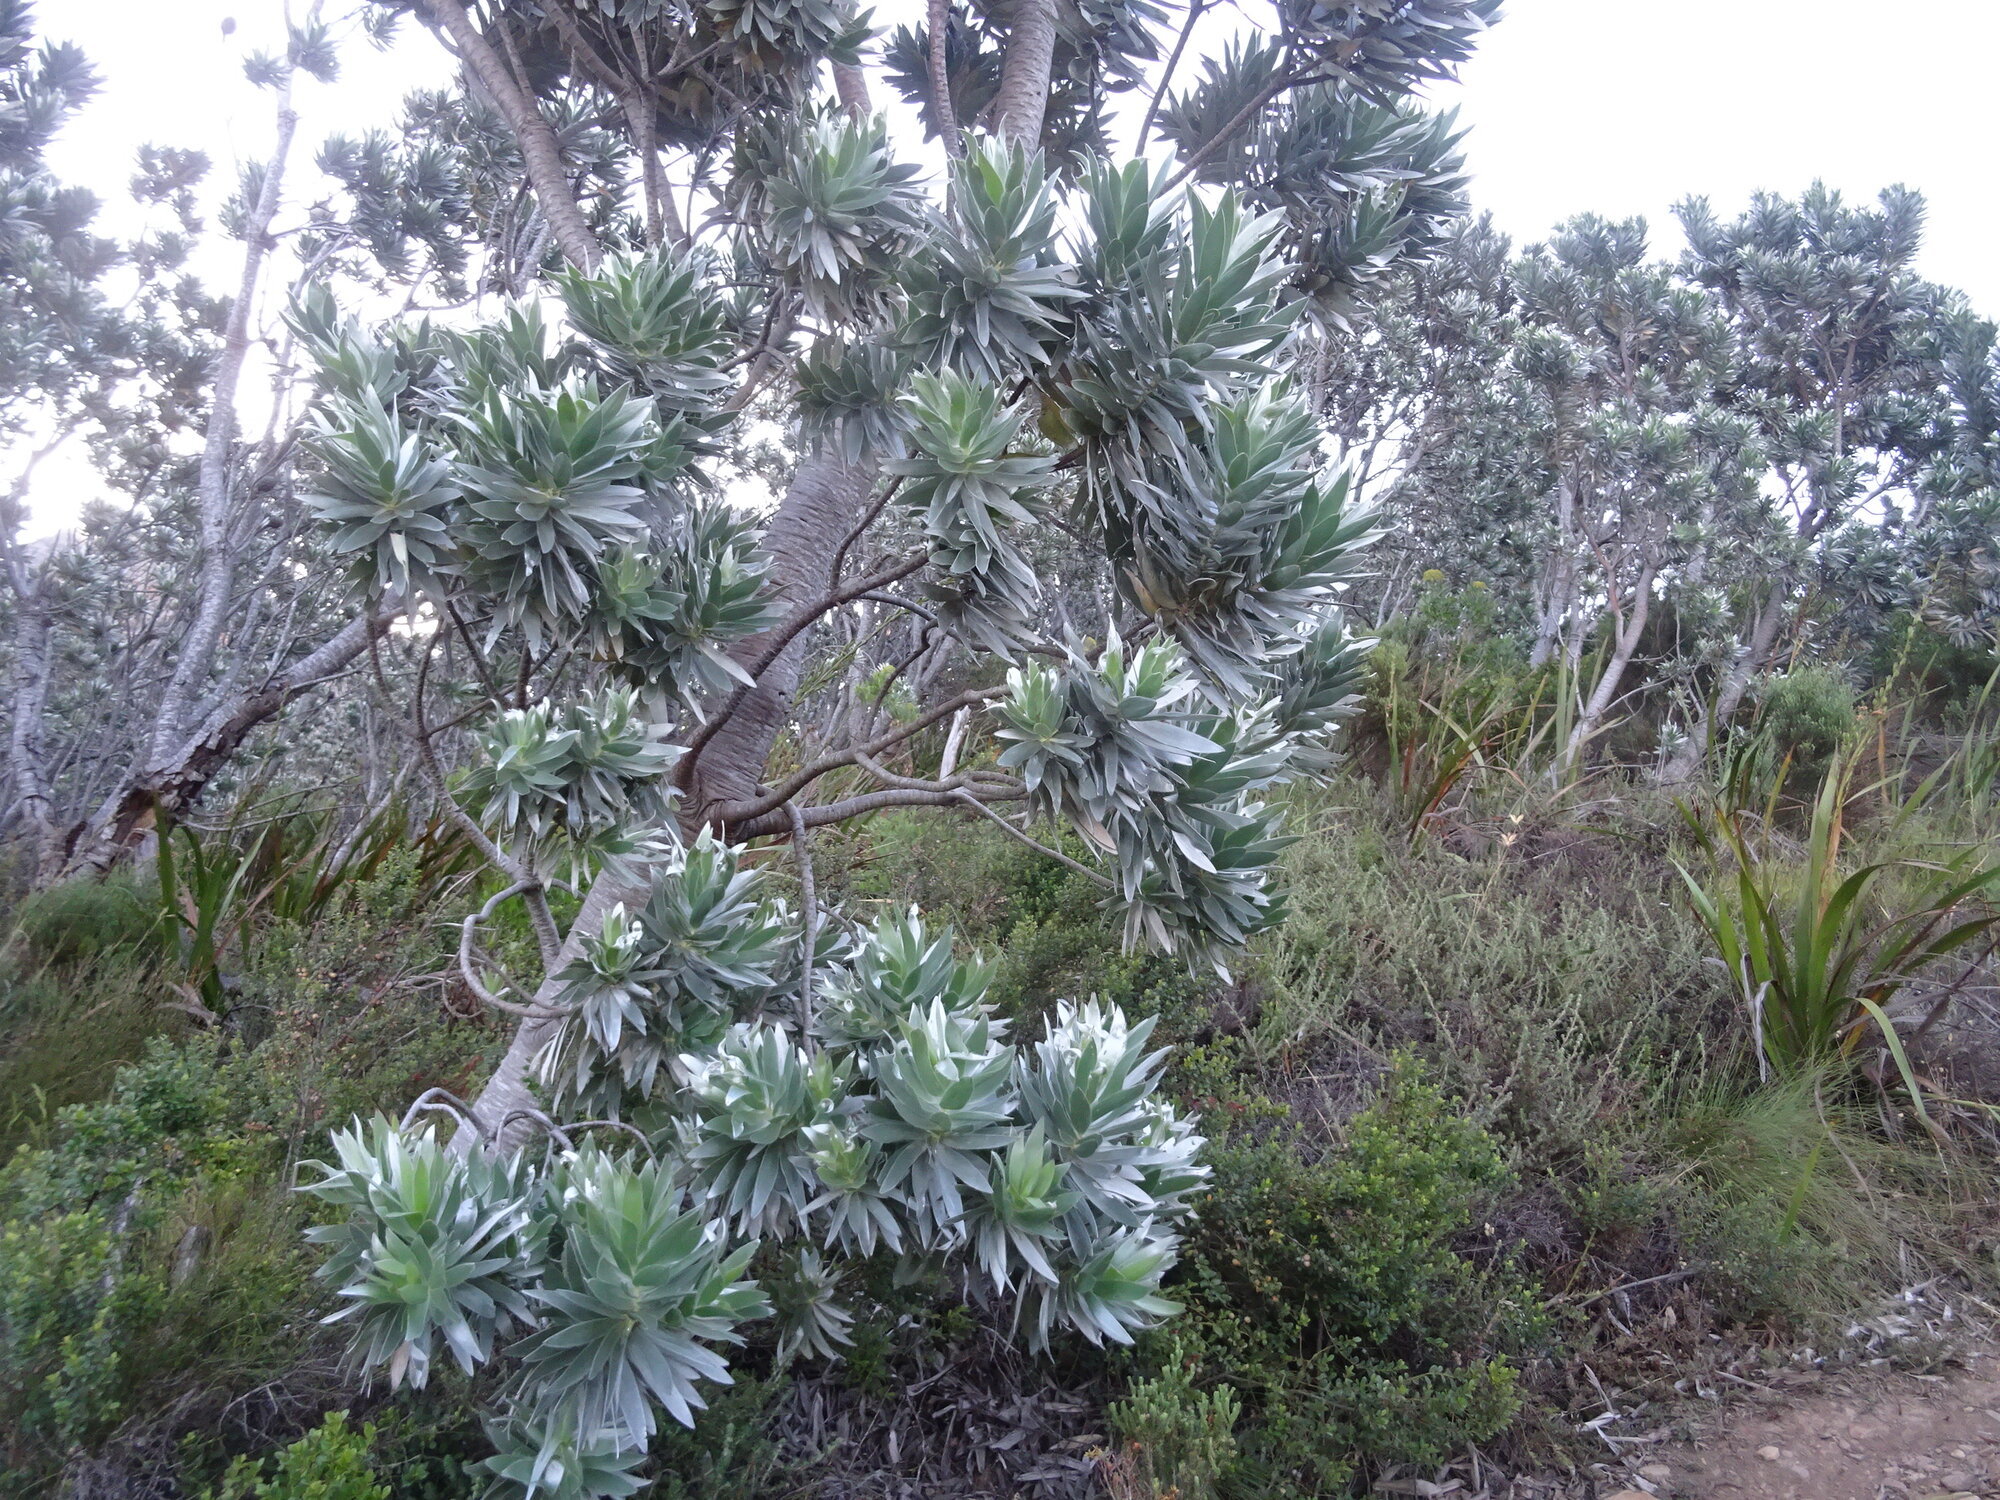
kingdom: Plantae
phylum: Tracheophyta
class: Magnoliopsida
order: Proteales
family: Proteaceae
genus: Leucadendron
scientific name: Leucadendron argenteum
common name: Cape silver tree
